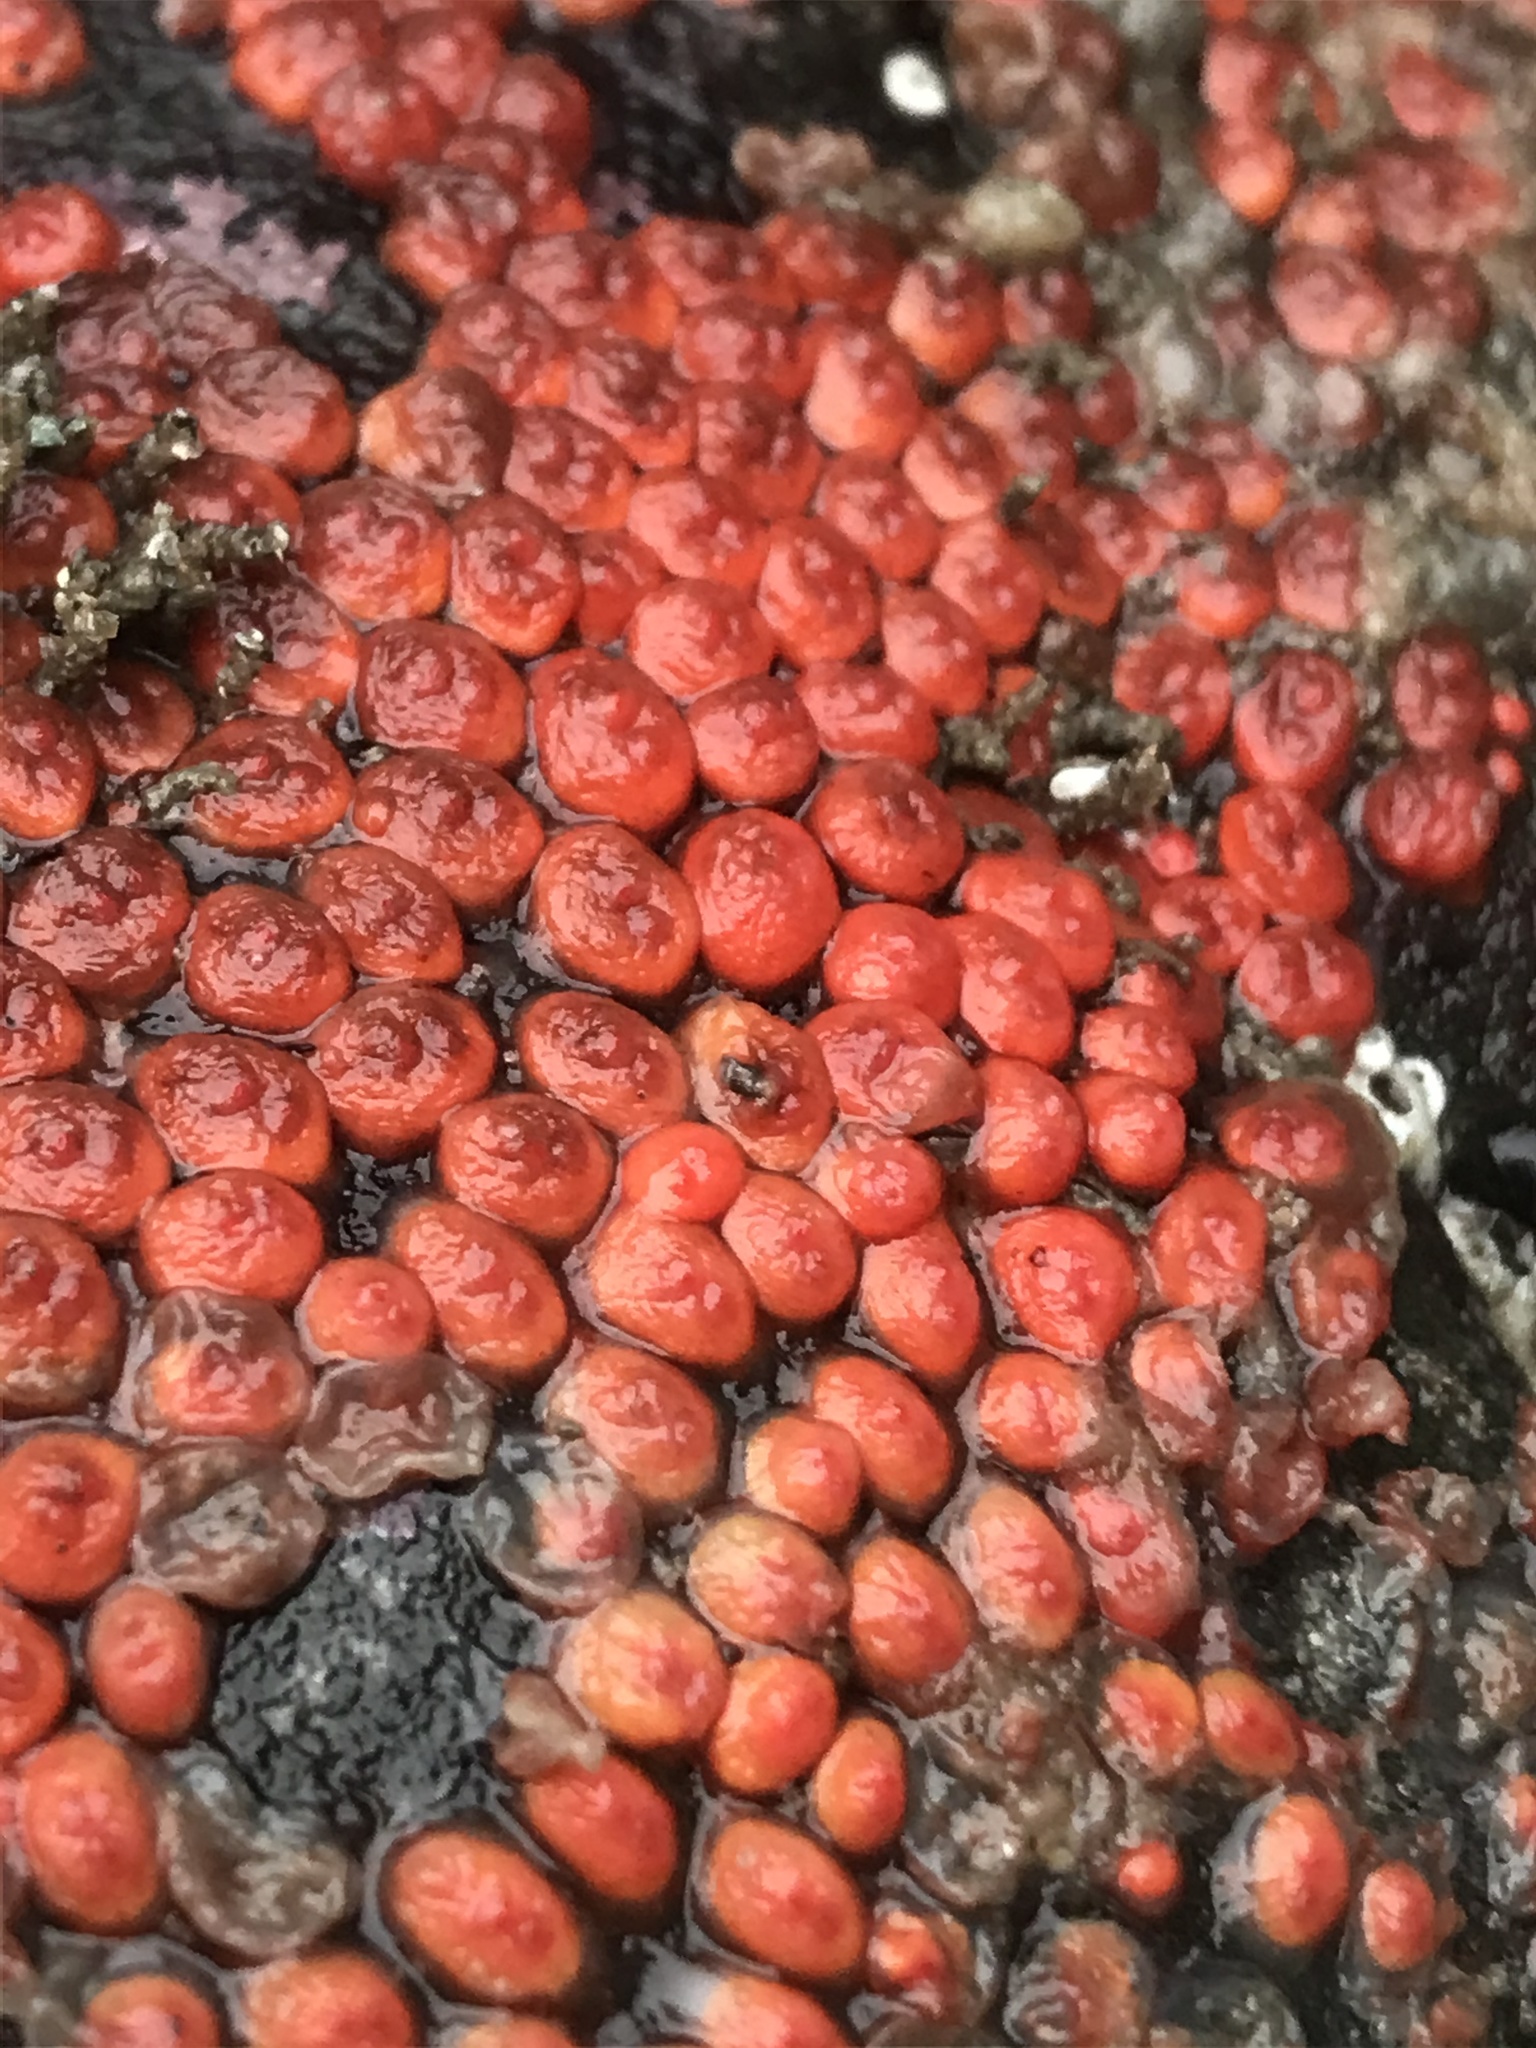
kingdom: Animalia
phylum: Chordata
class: Ascidiacea
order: Stolidobranchia
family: Styelidae
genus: Metandrocarpa
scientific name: Metandrocarpa taylori
